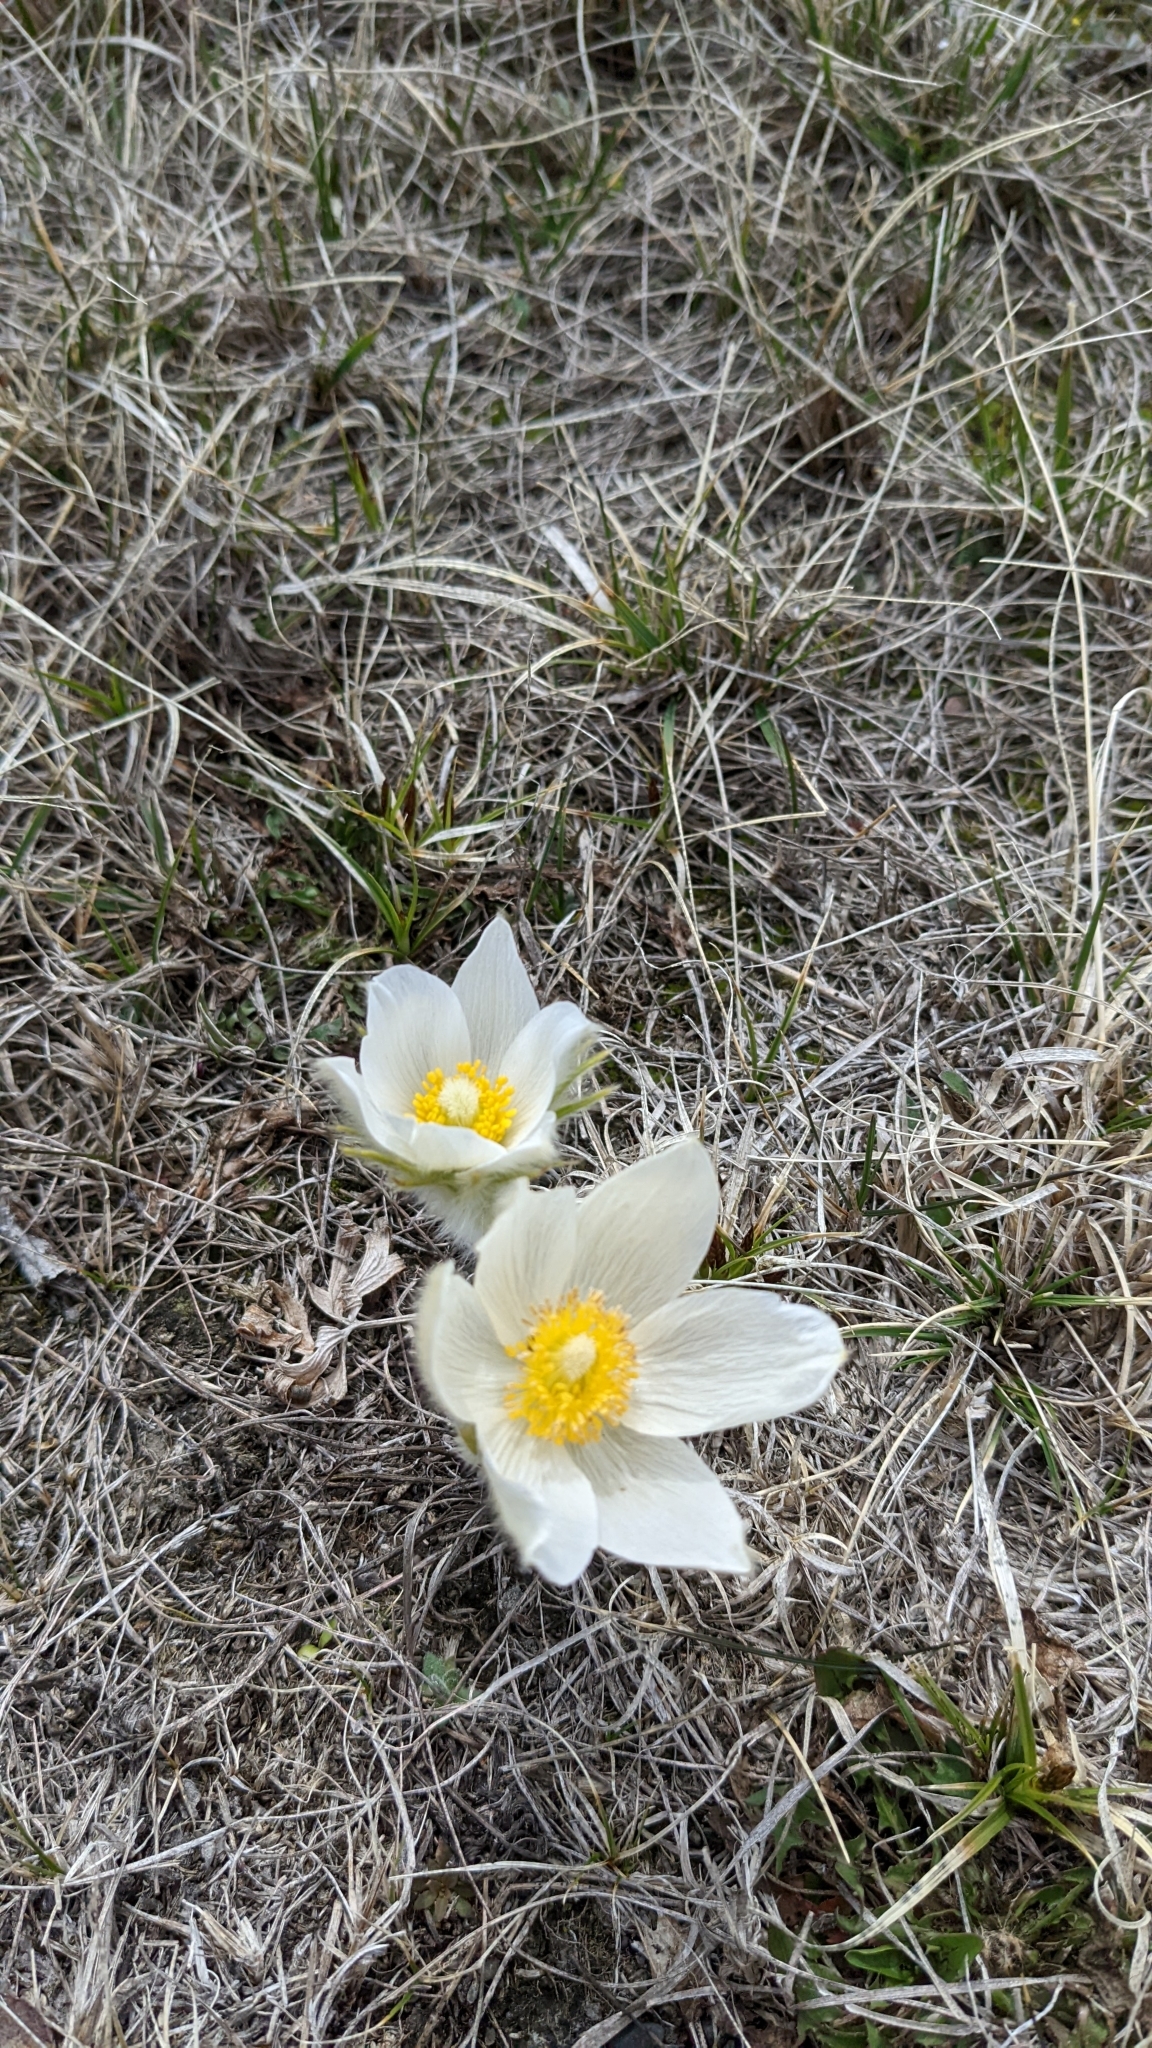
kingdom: Plantae
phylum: Tracheophyta
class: Magnoliopsida
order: Ranunculales
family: Ranunculaceae
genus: Pulsatilla
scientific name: Pulsatilla nuttalliana
